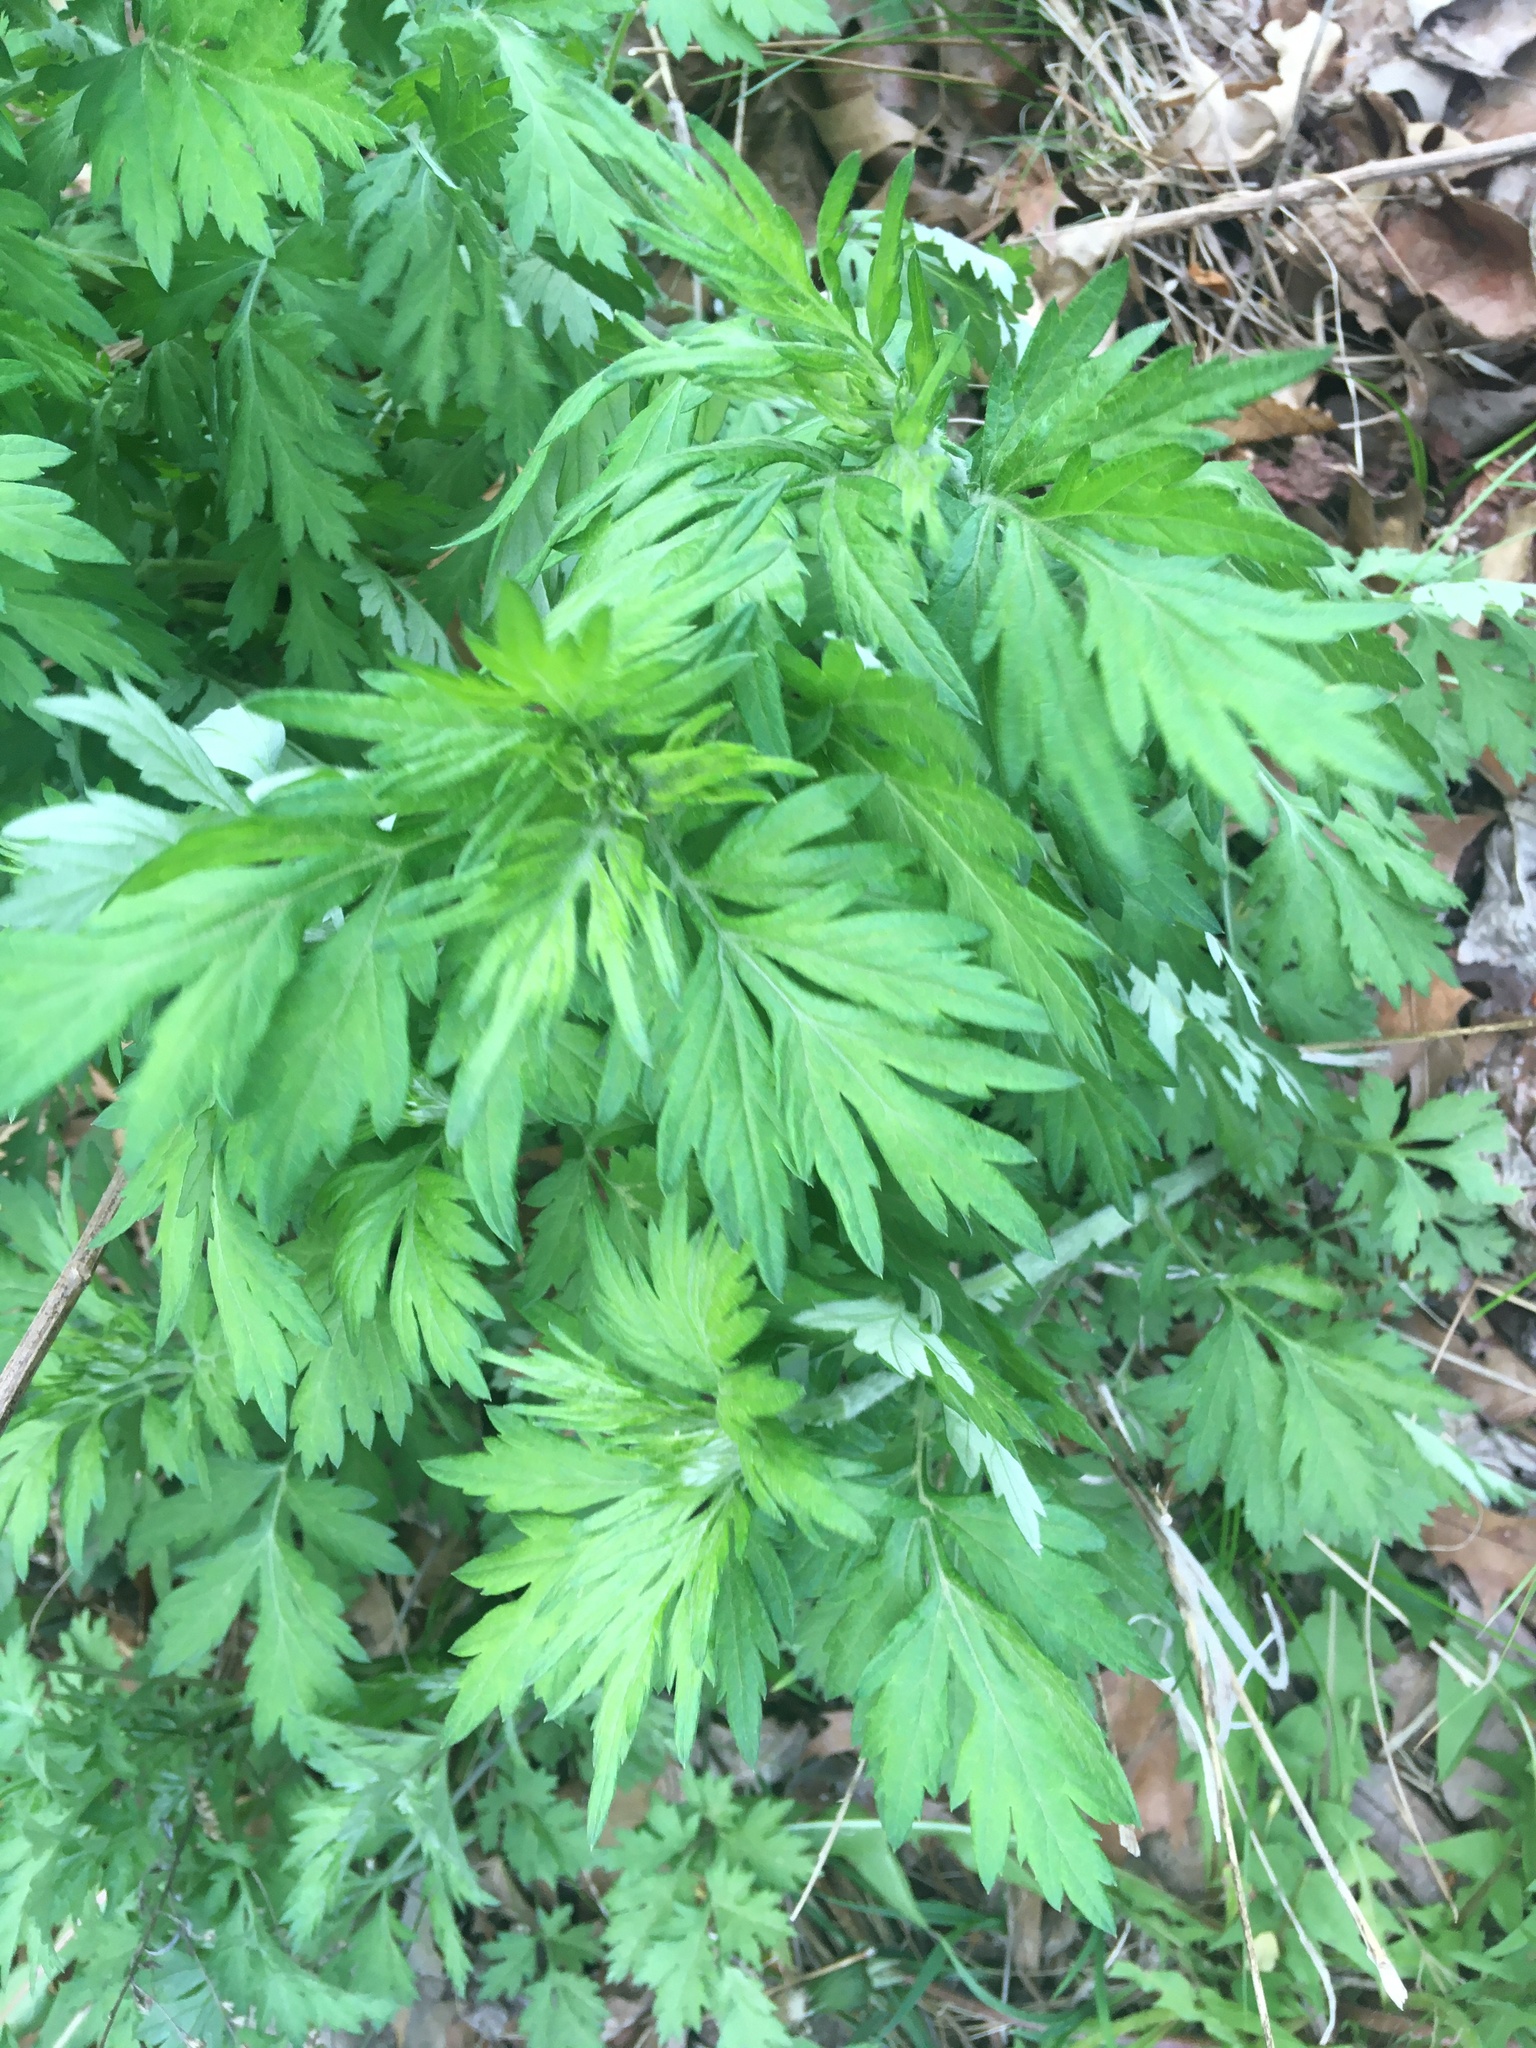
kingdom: Plantae
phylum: Tracheophyta
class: Magnoliopsida
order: Asterales
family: Asteraceae
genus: Artemisia
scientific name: Artemisia vulgaris
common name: Mugwort
